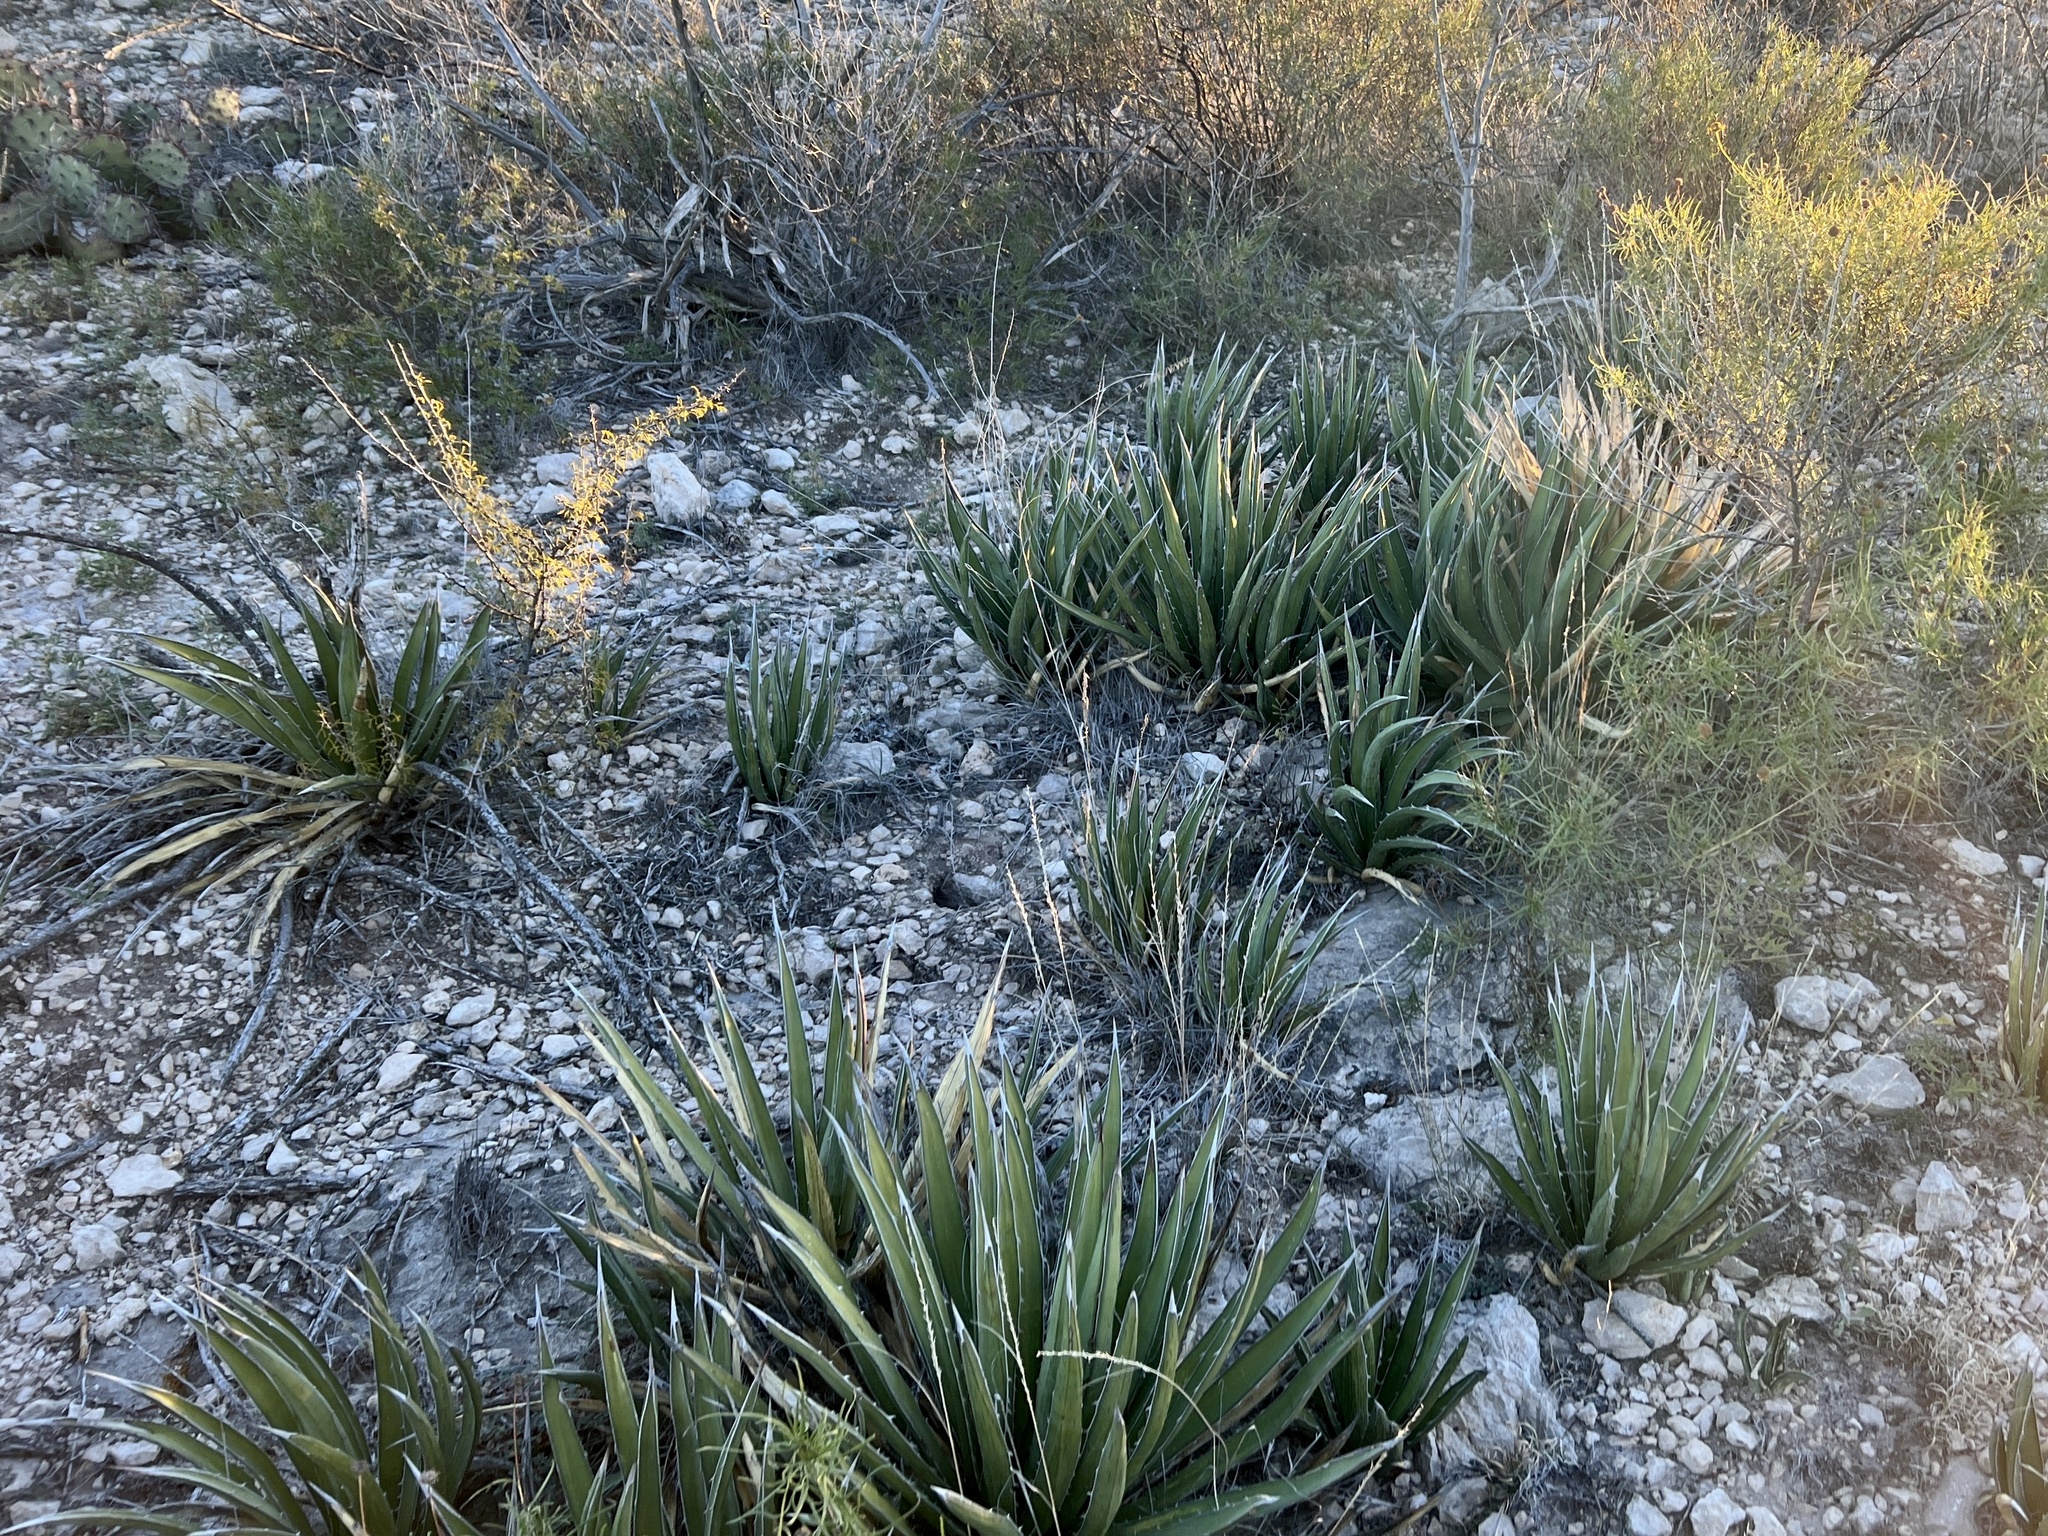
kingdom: Plantae
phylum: Tracheophyta
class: Liliopsida
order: Asparagales
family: Asparagaceae
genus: Agave
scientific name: Agave lechuguilla
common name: Lecheguilla agave
